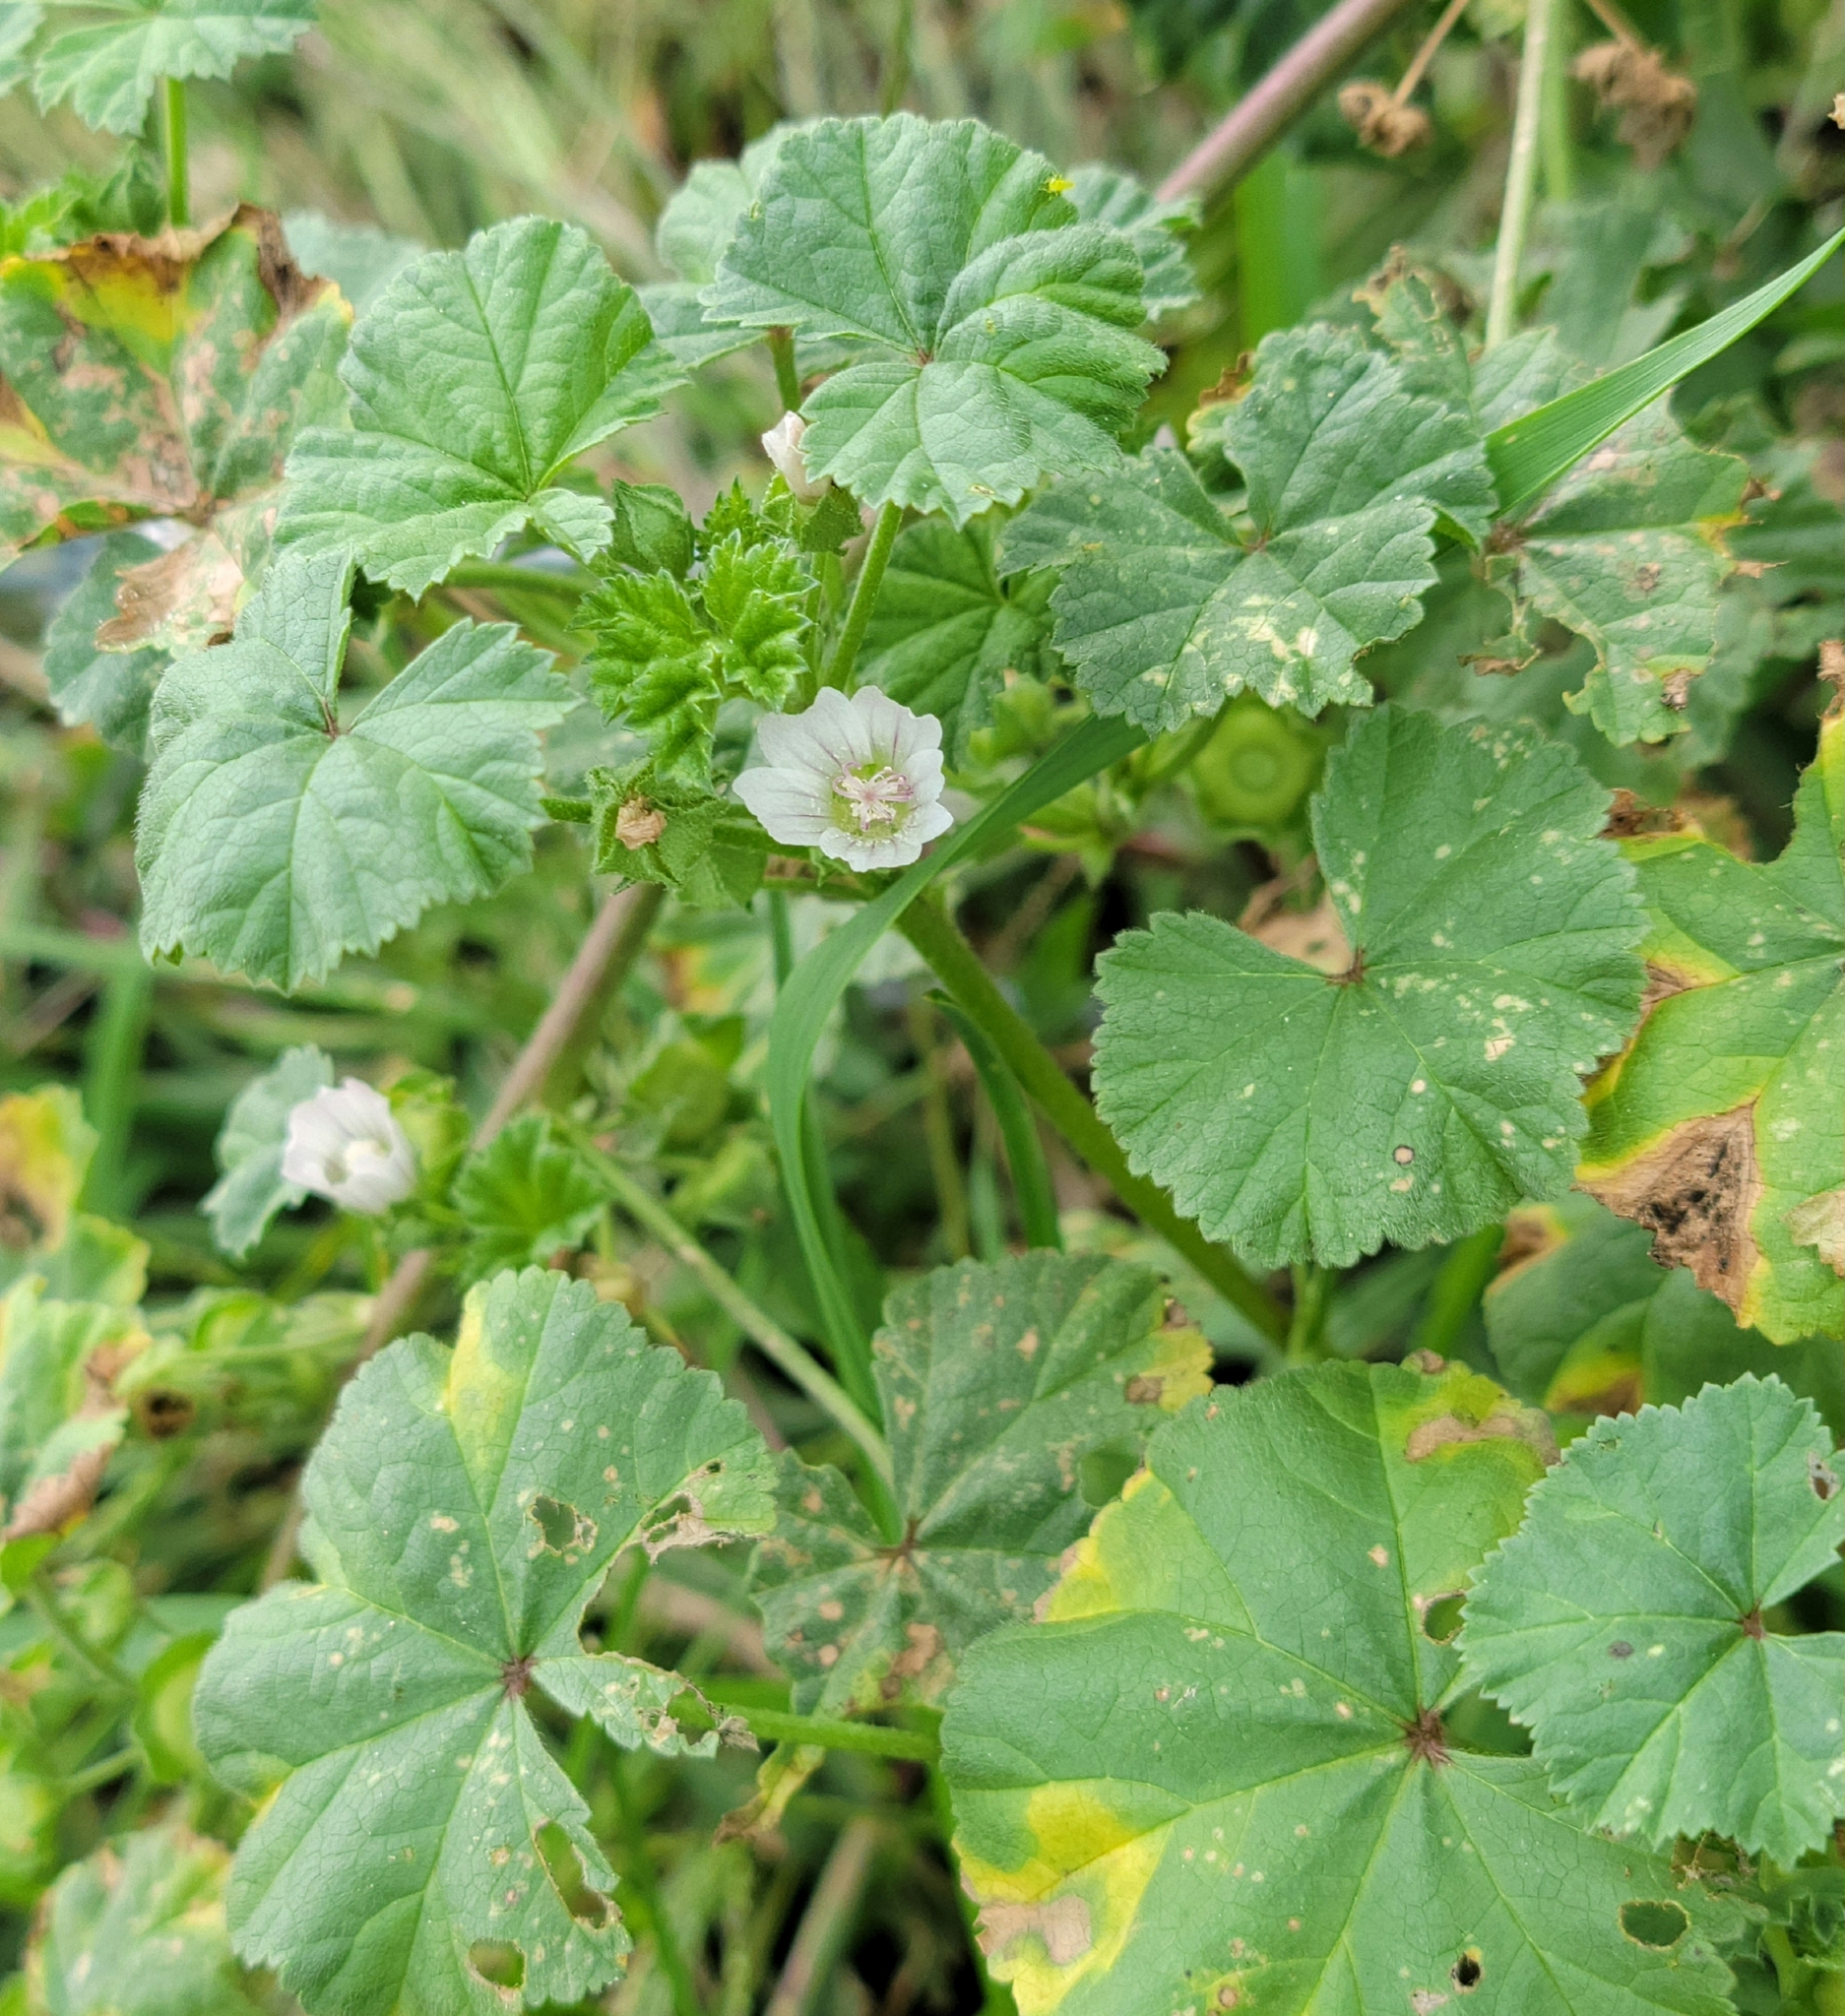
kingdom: Plantae
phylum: Tracheophyta
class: Magnoliopsida
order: Malvales
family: Malvaceae
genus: Malva
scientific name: Malva neglecta
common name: Common mallow
